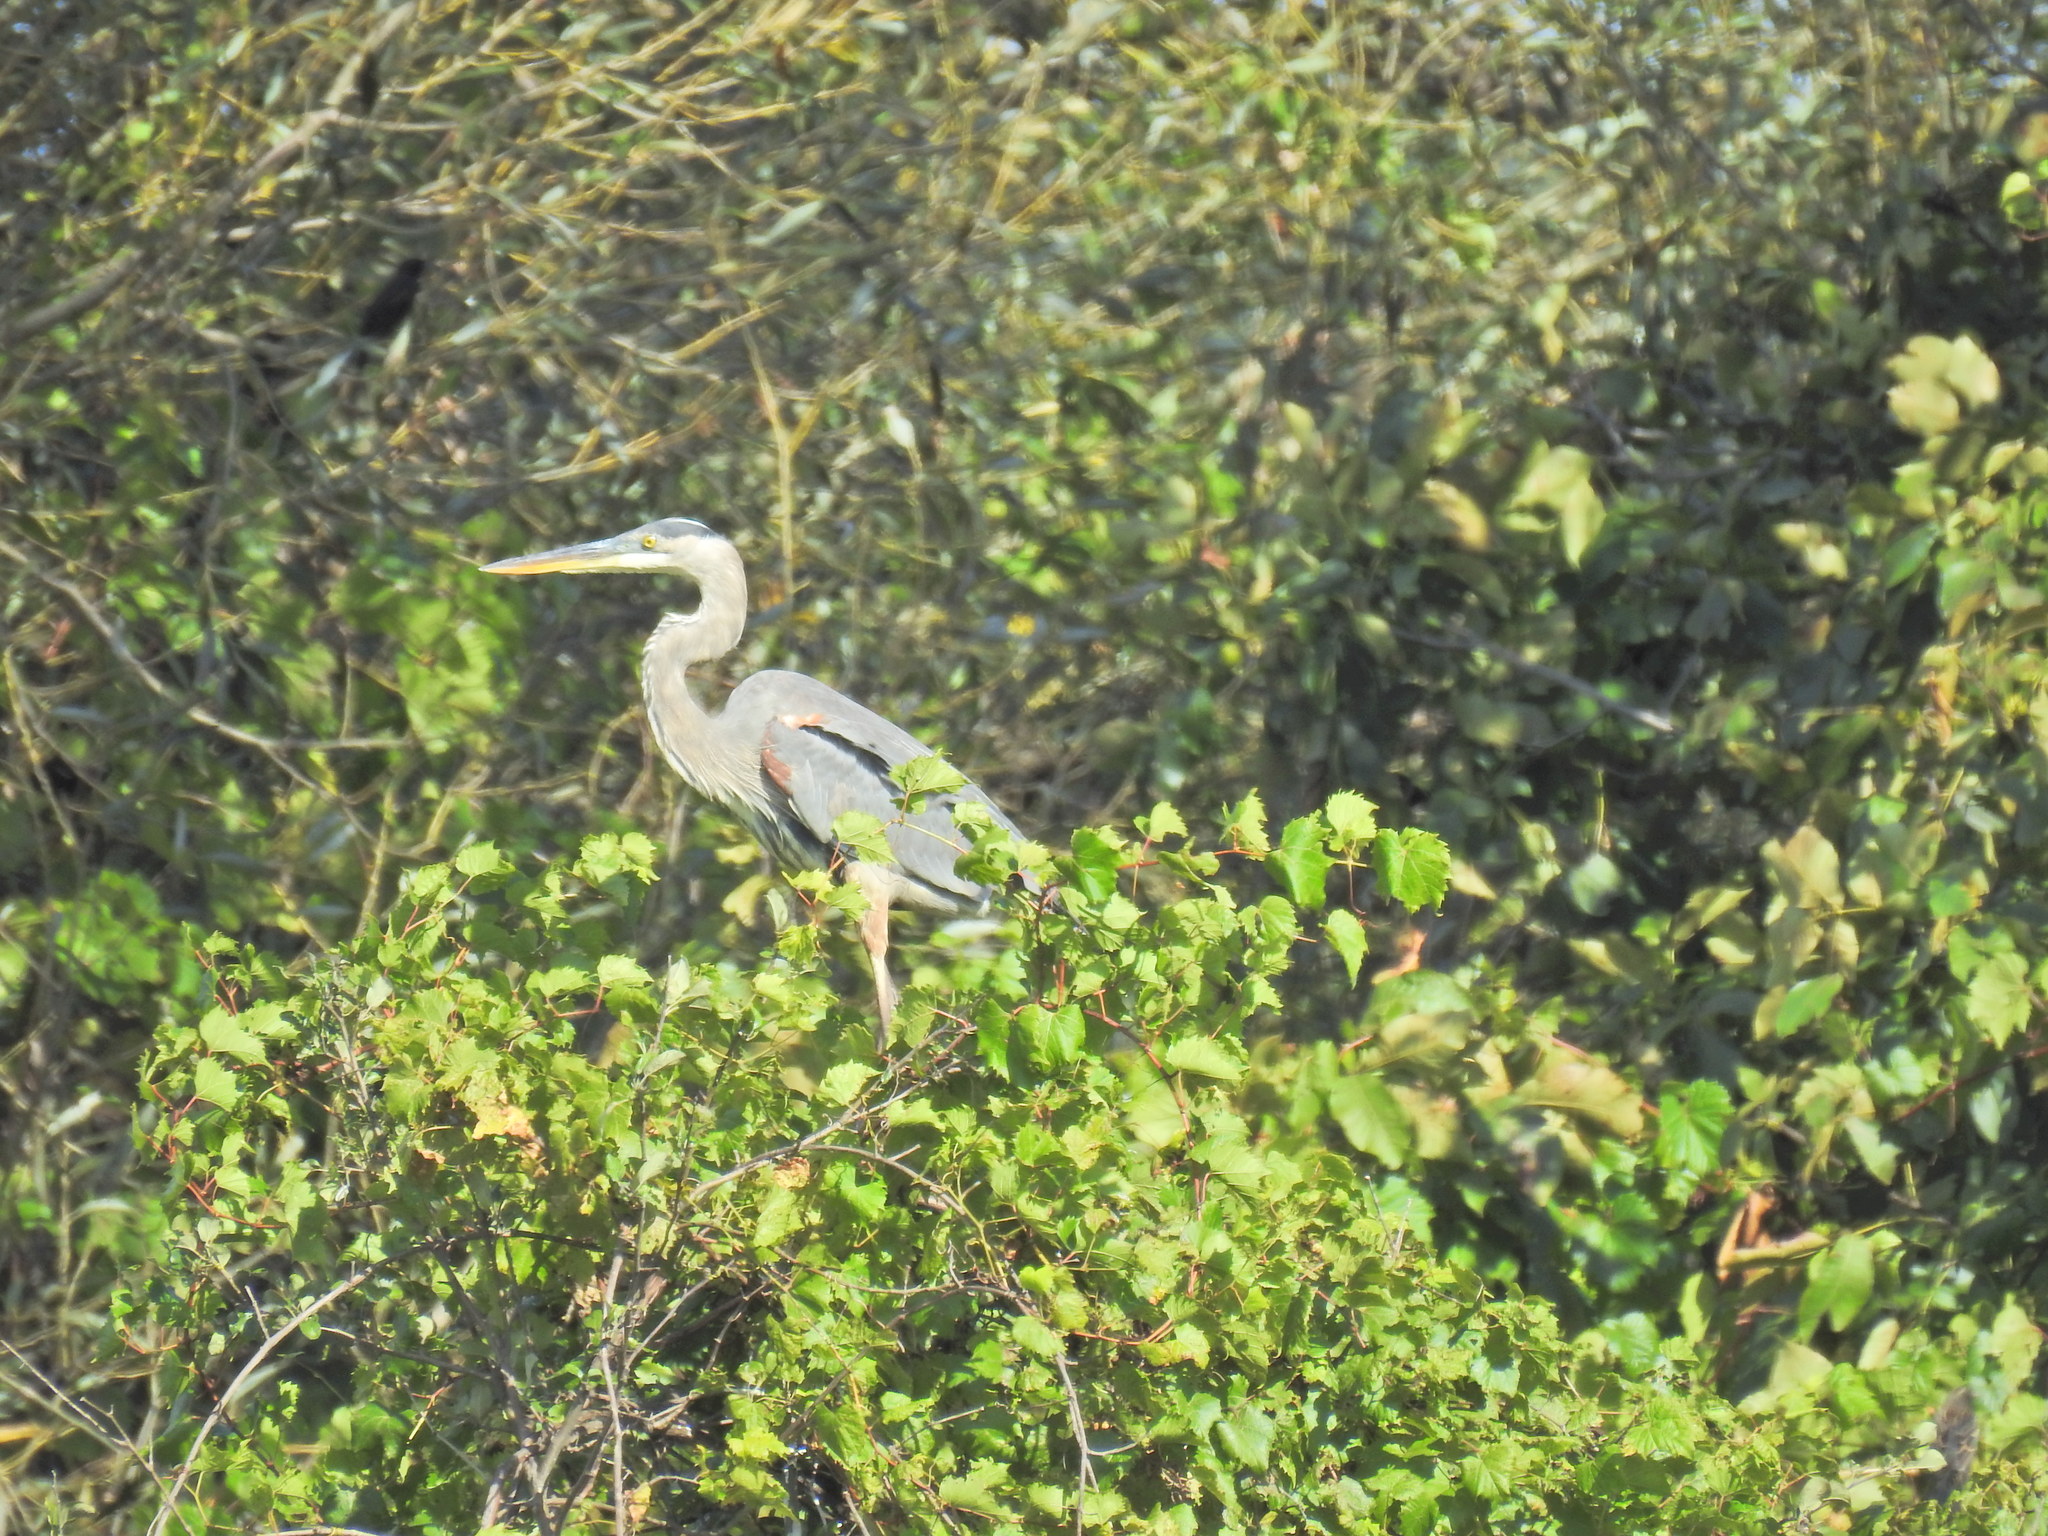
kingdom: Animalia
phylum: Chordata
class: Aves
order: Pelecaniformes
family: Ardeidae
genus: Ardea
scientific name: Ardea herodias
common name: Great blue heron
